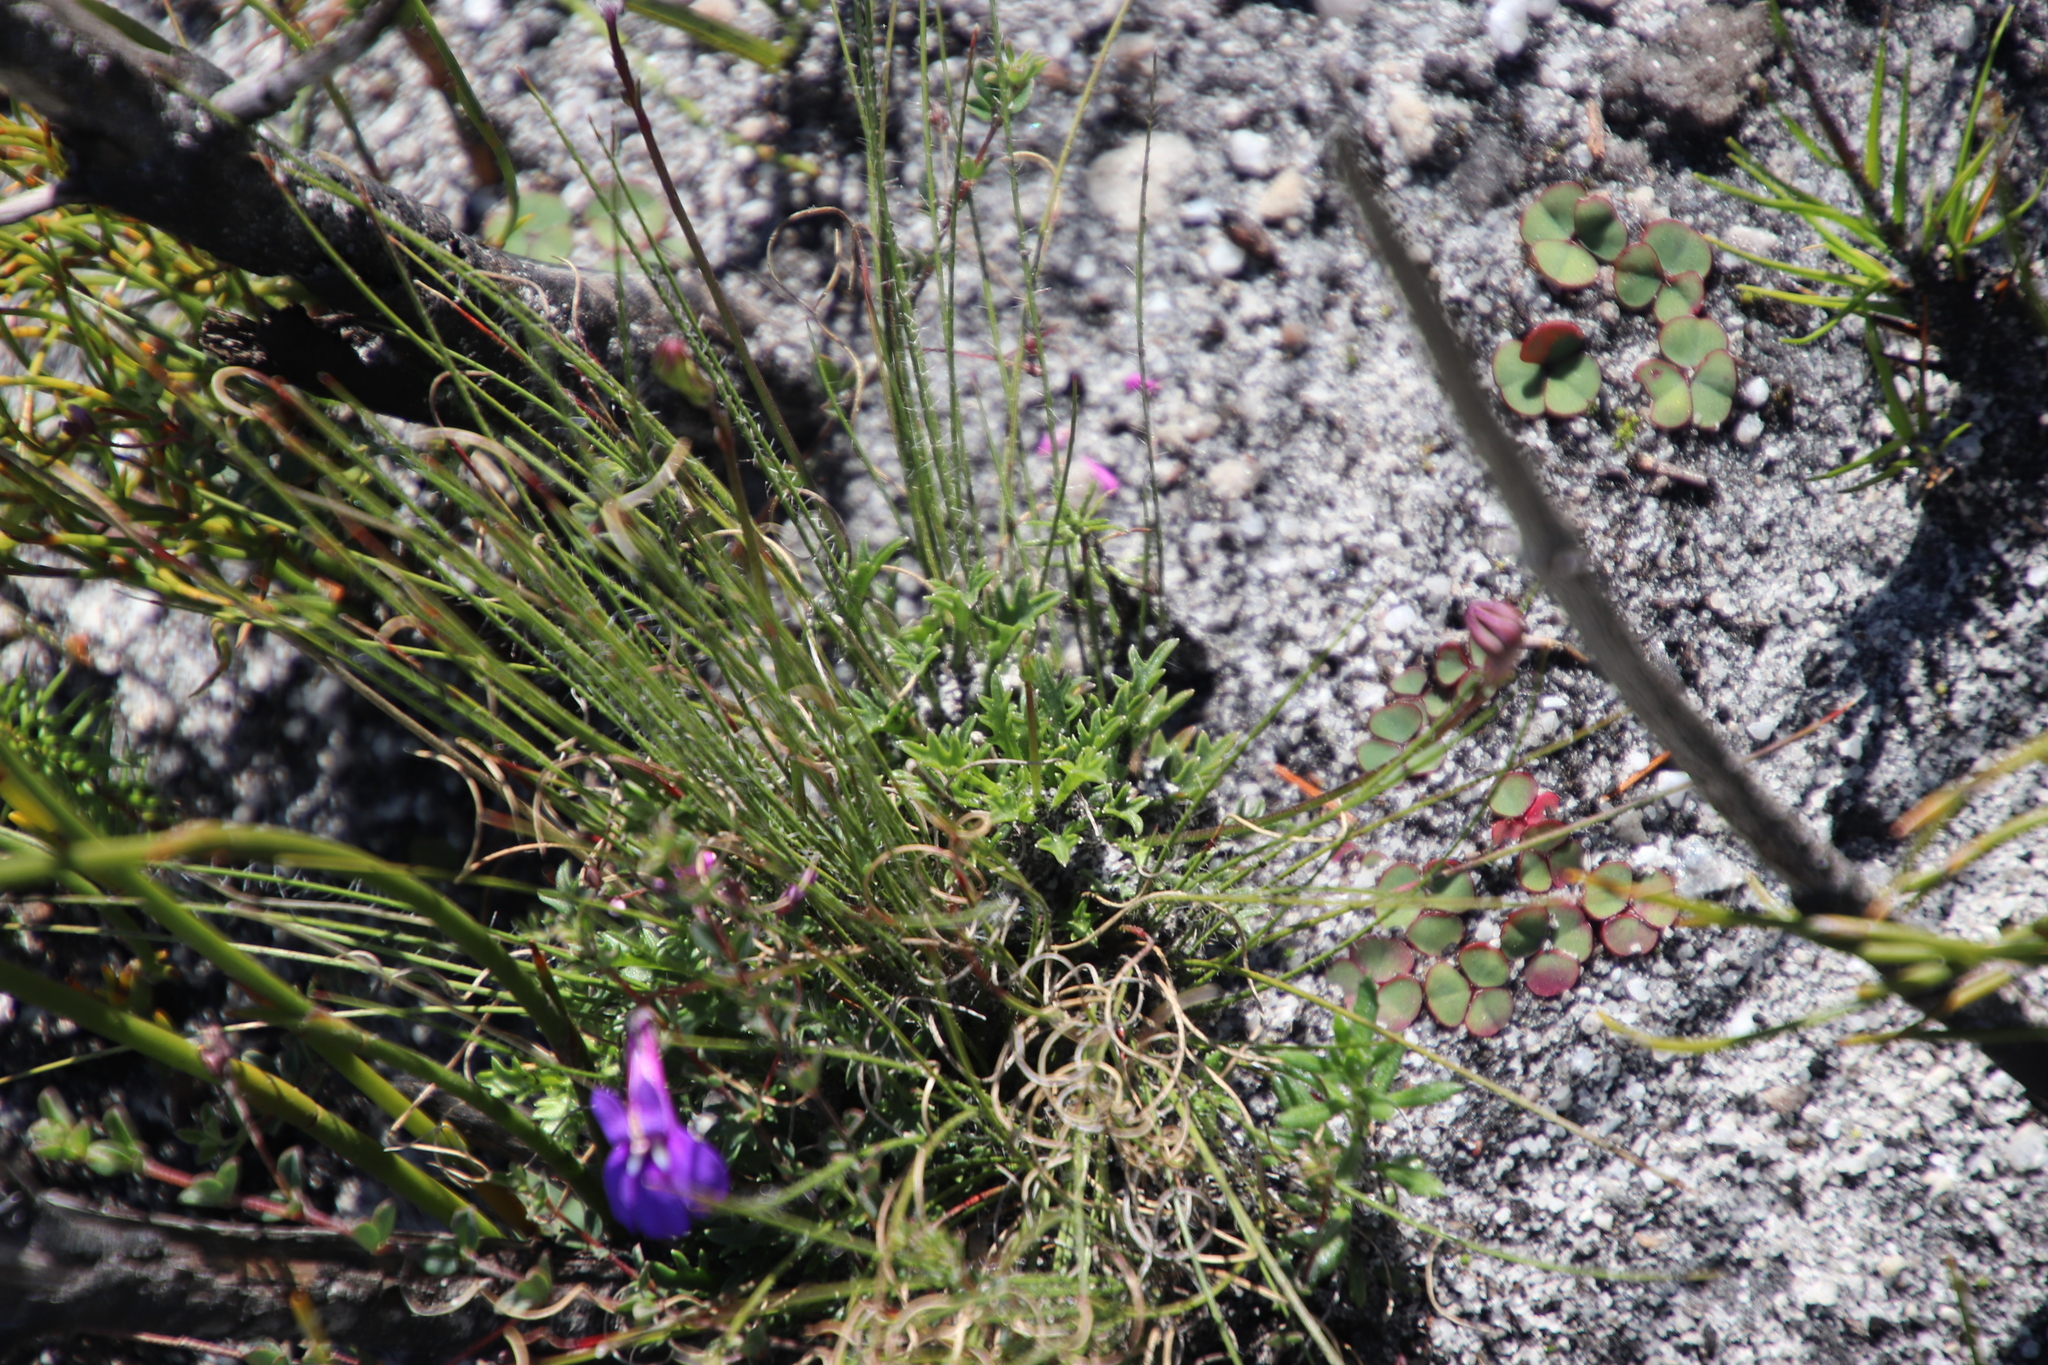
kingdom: Plantae
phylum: Tracheophyta
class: Magnoliopsida
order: Asterales
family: Campanulaceae
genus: Lobelia
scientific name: Lobelia coronopifolia
